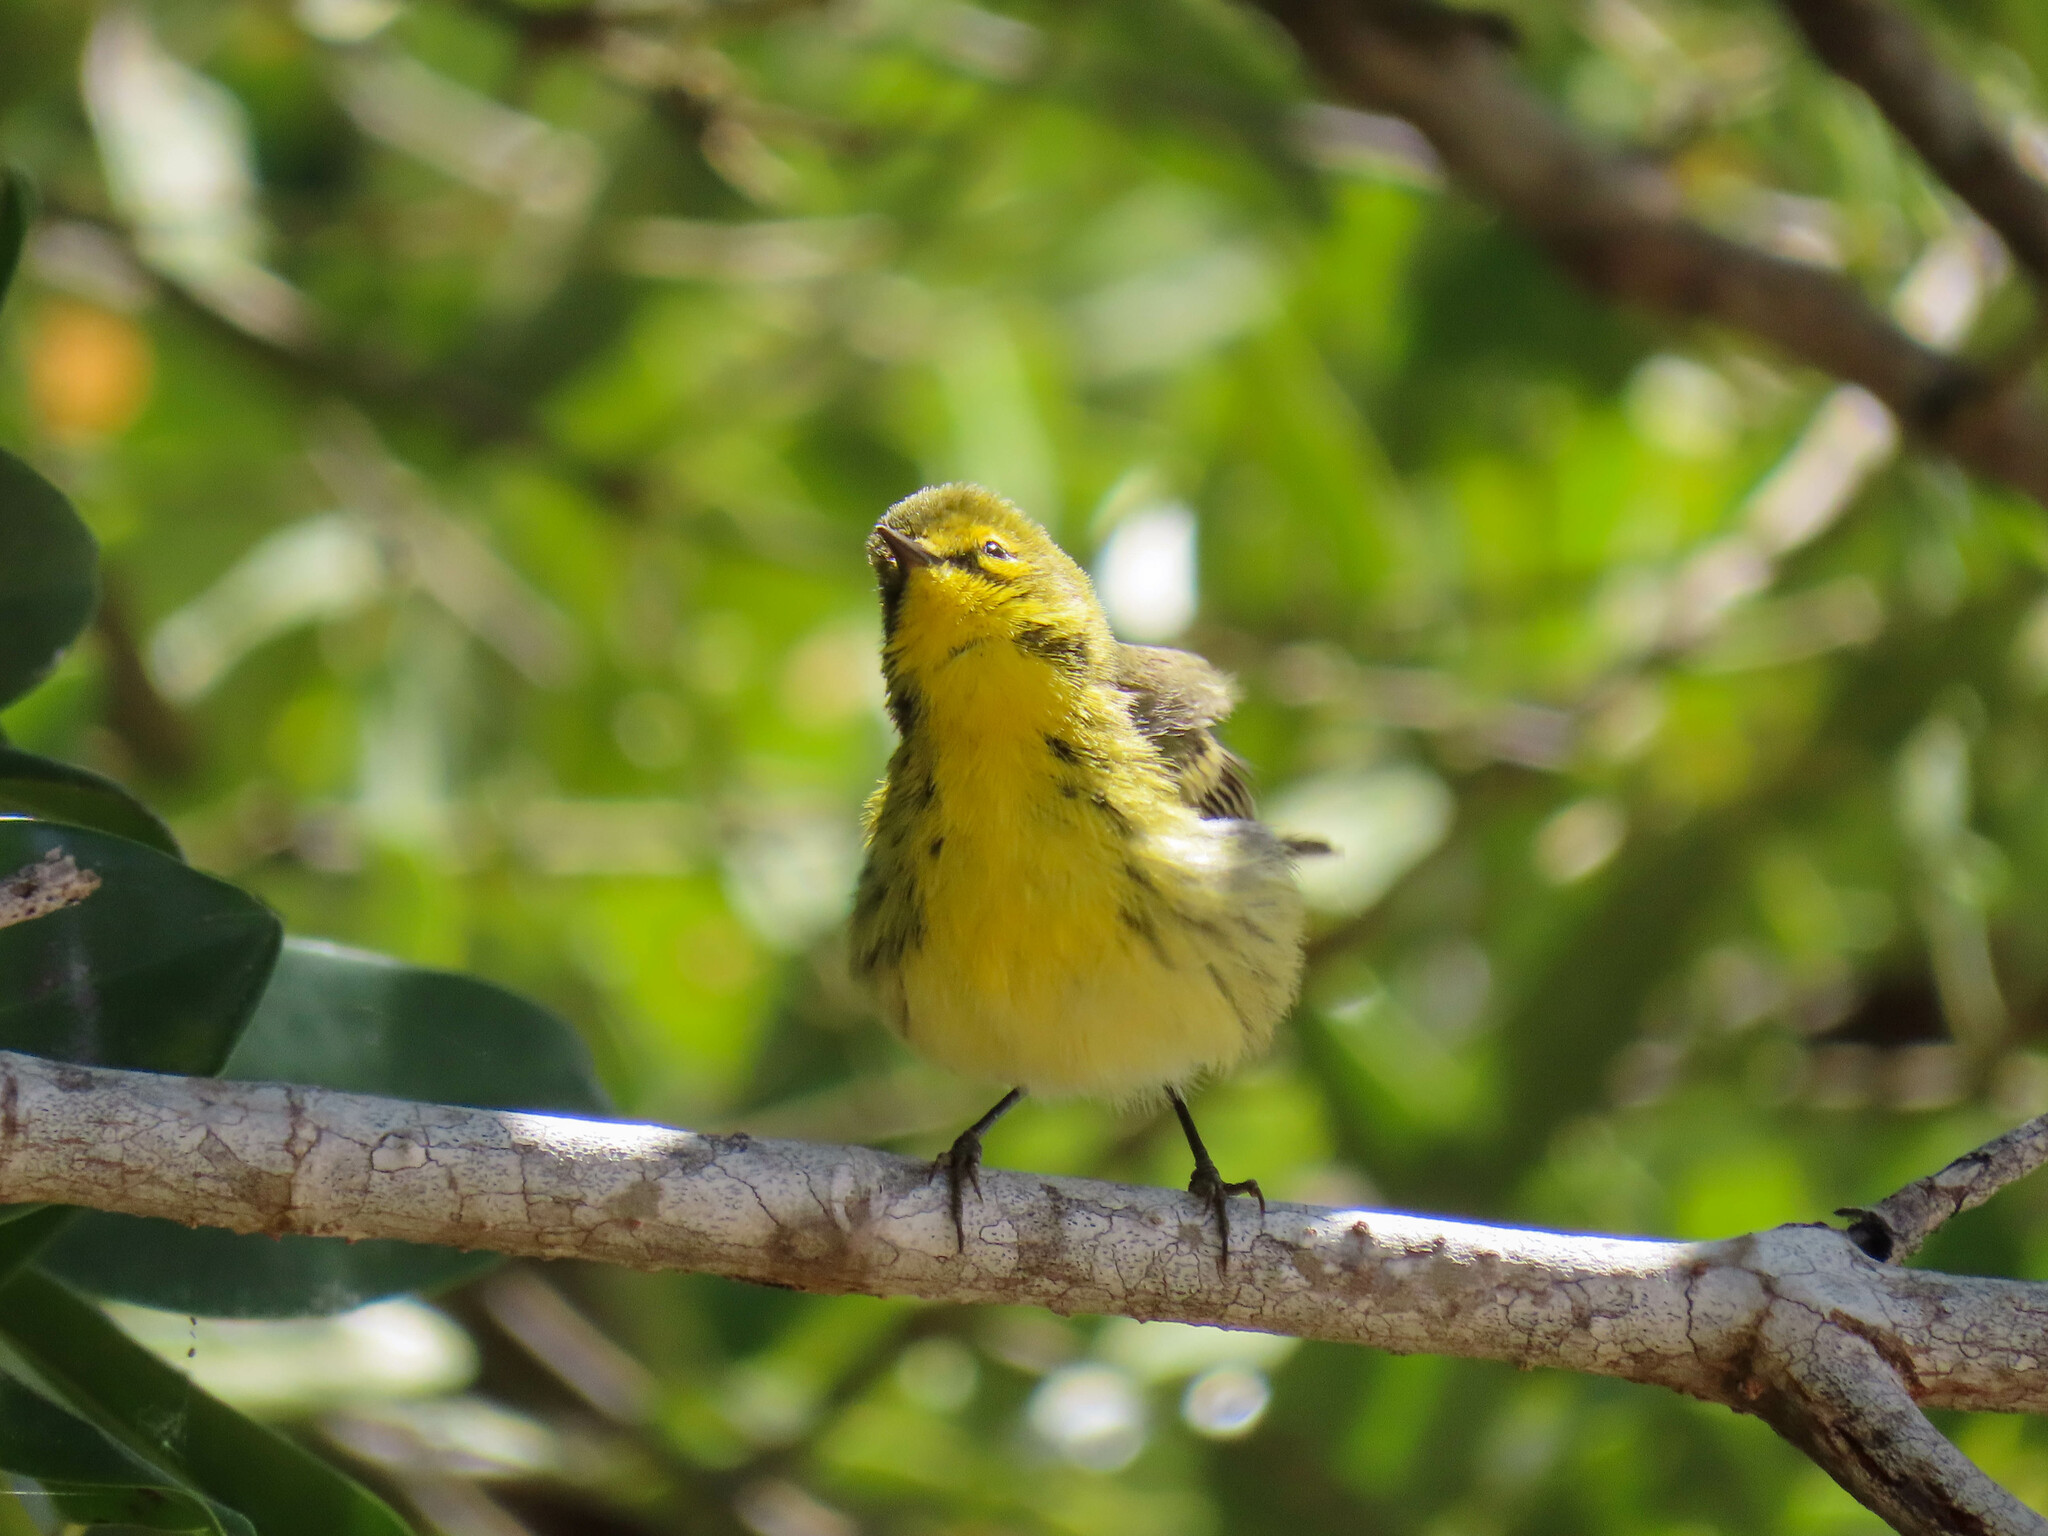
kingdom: Animalia
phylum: Chordata
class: Aves
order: Passeriformes
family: Parulidae
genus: Setophaga
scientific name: Setophaga discolor
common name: Prairie warbler
